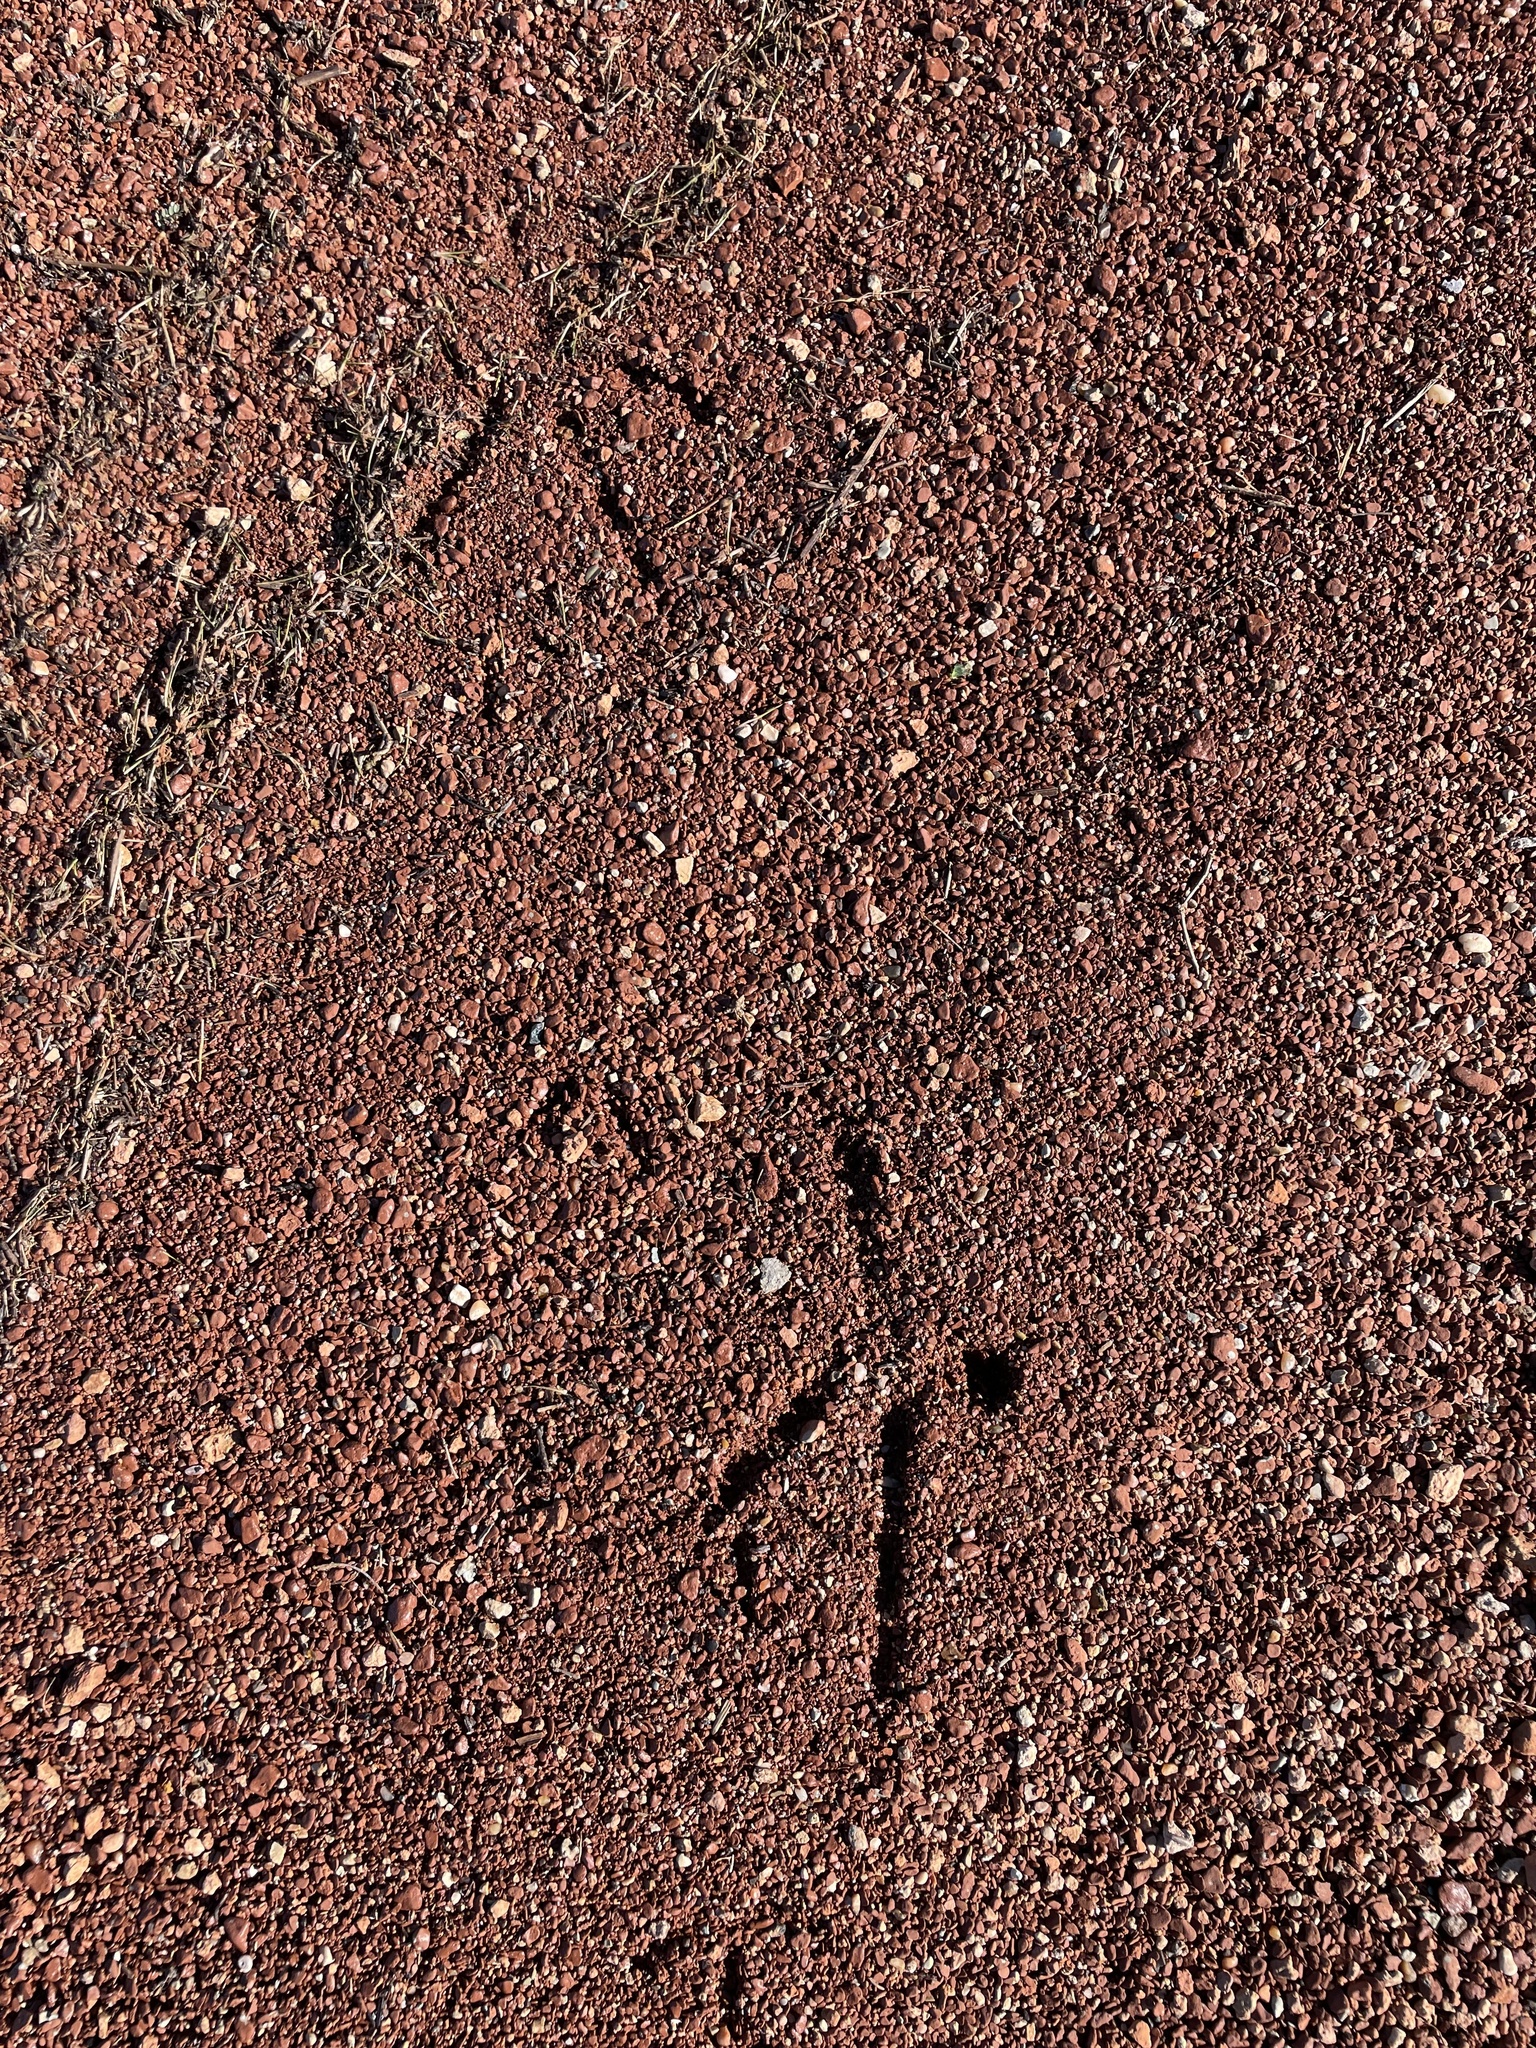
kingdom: Animalia
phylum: Chordata
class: Aves
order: Charadriiformes
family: Scolopacidae
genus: Tringa
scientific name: Tringa melanoleuca
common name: Greater yellowlegs
